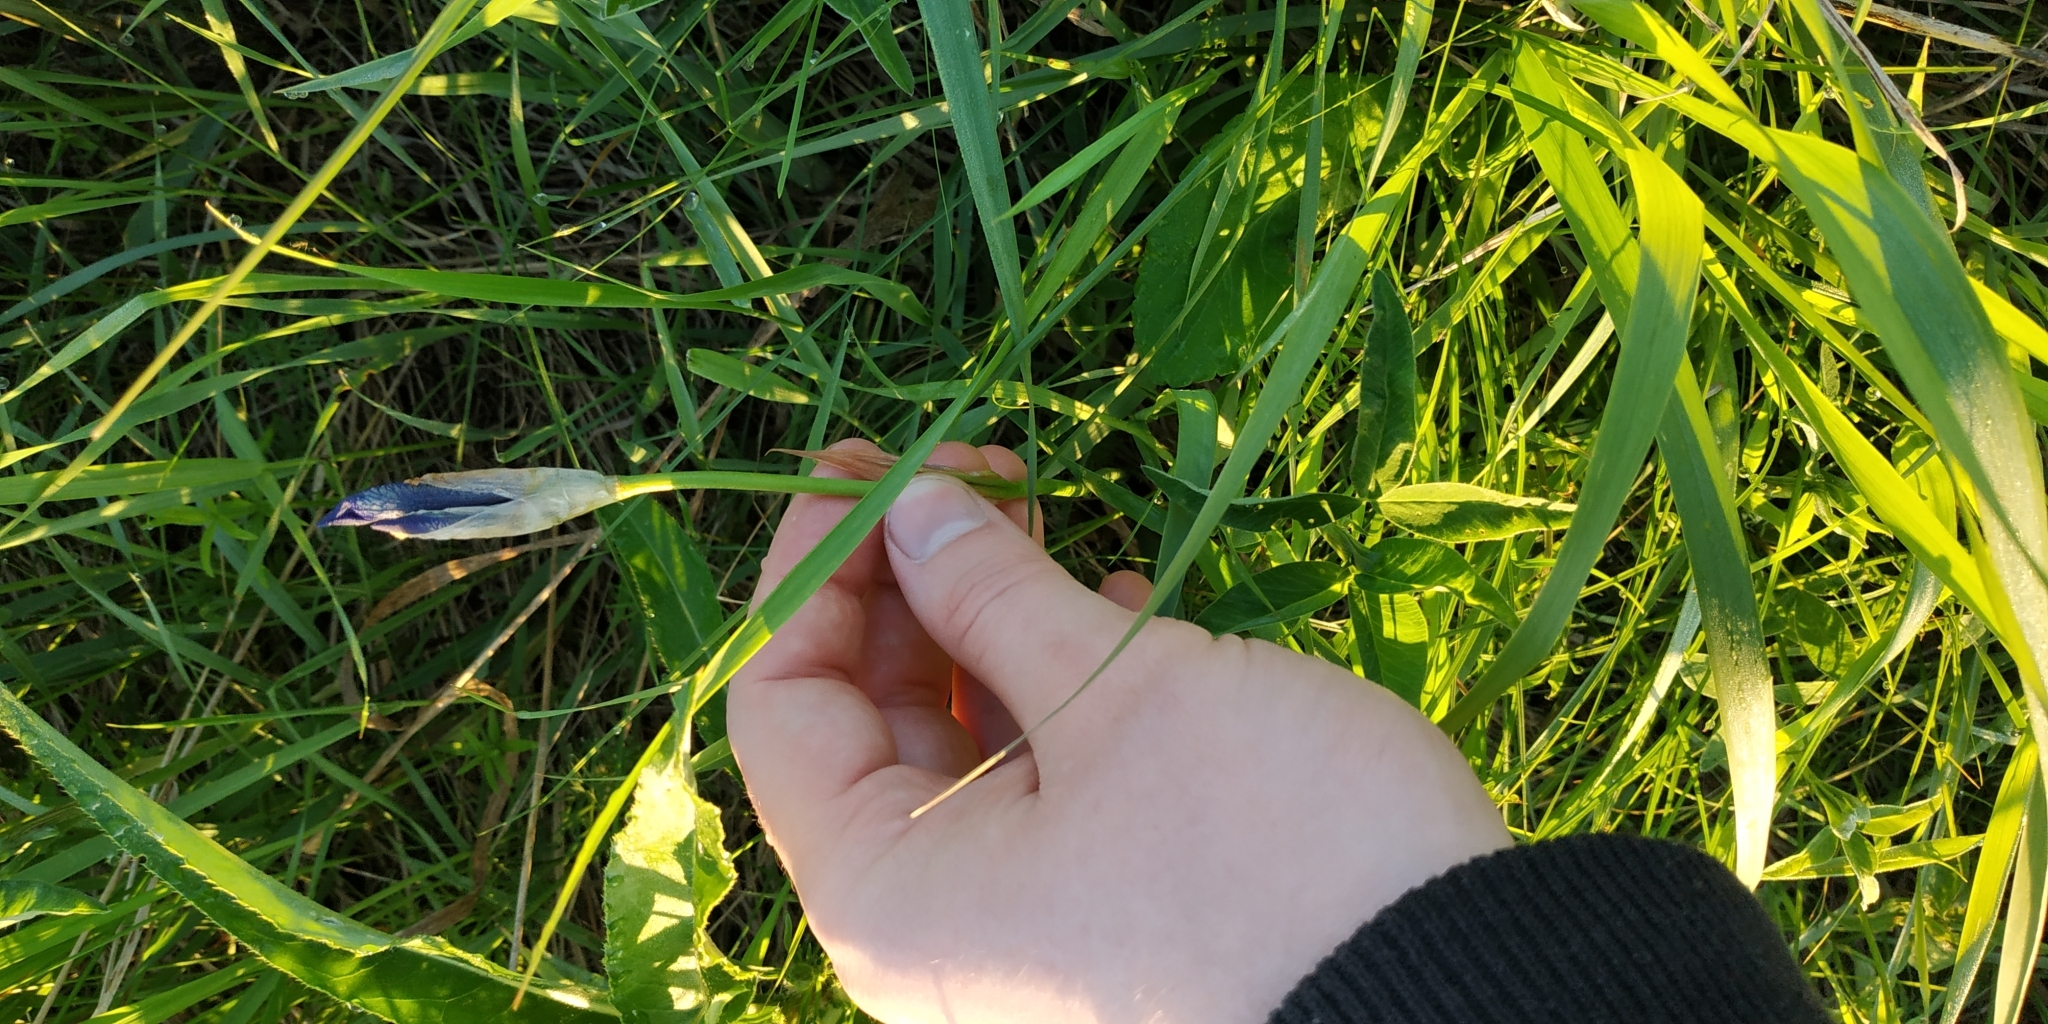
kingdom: Plantae
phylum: Tracheophyta
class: Liliopsida
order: Asparagales
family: Iridaceae
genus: Iris
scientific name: Iris sibirica
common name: Siberian iris
